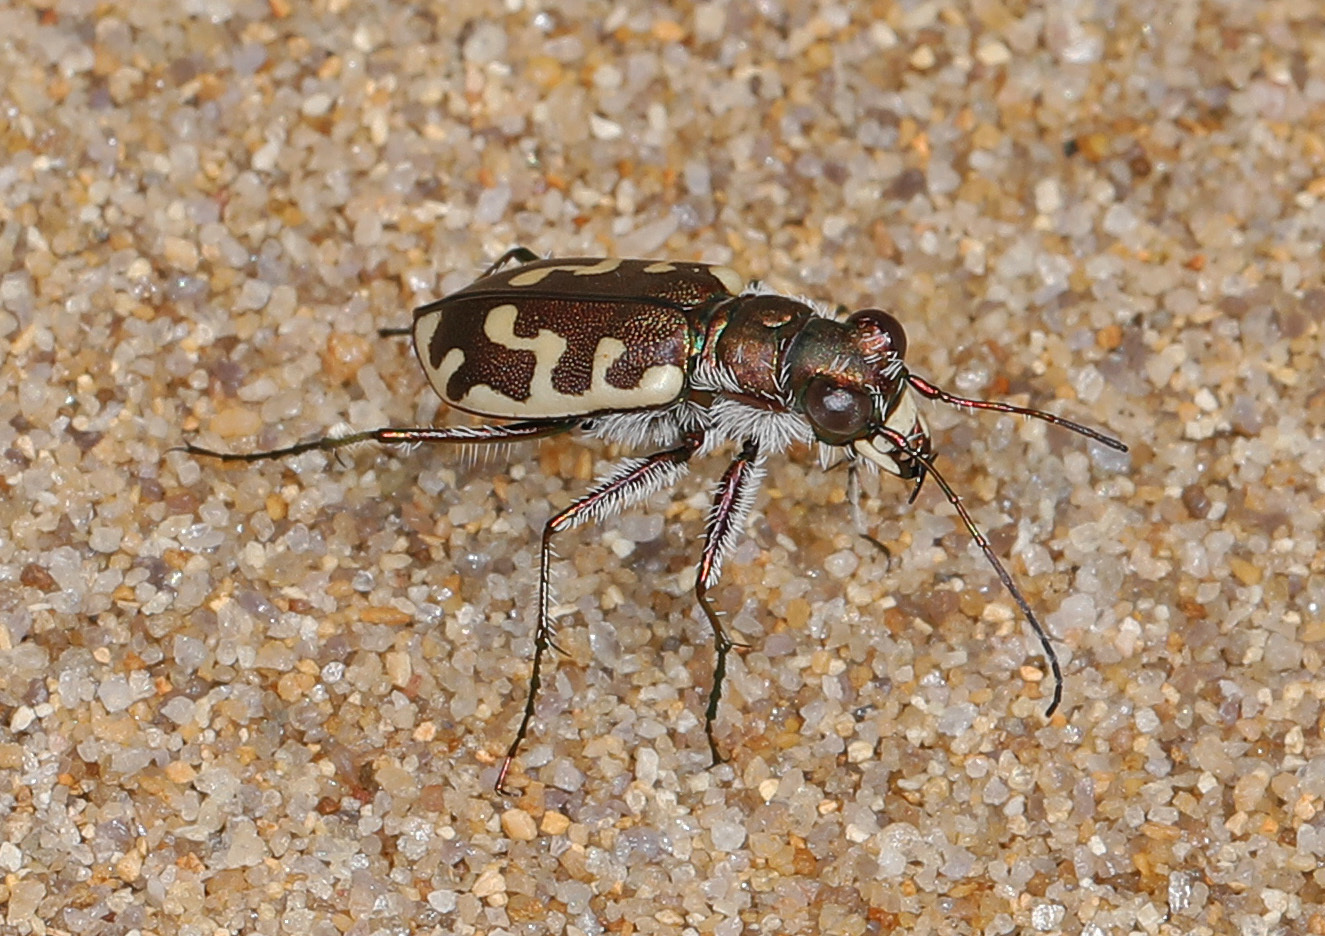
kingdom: Animalia
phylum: Arthropoda
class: Insecta
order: Coleoptera
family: Carabidae
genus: Cicindela
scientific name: Cicindela hirticollis
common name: Hairy-necked tiger beetle
